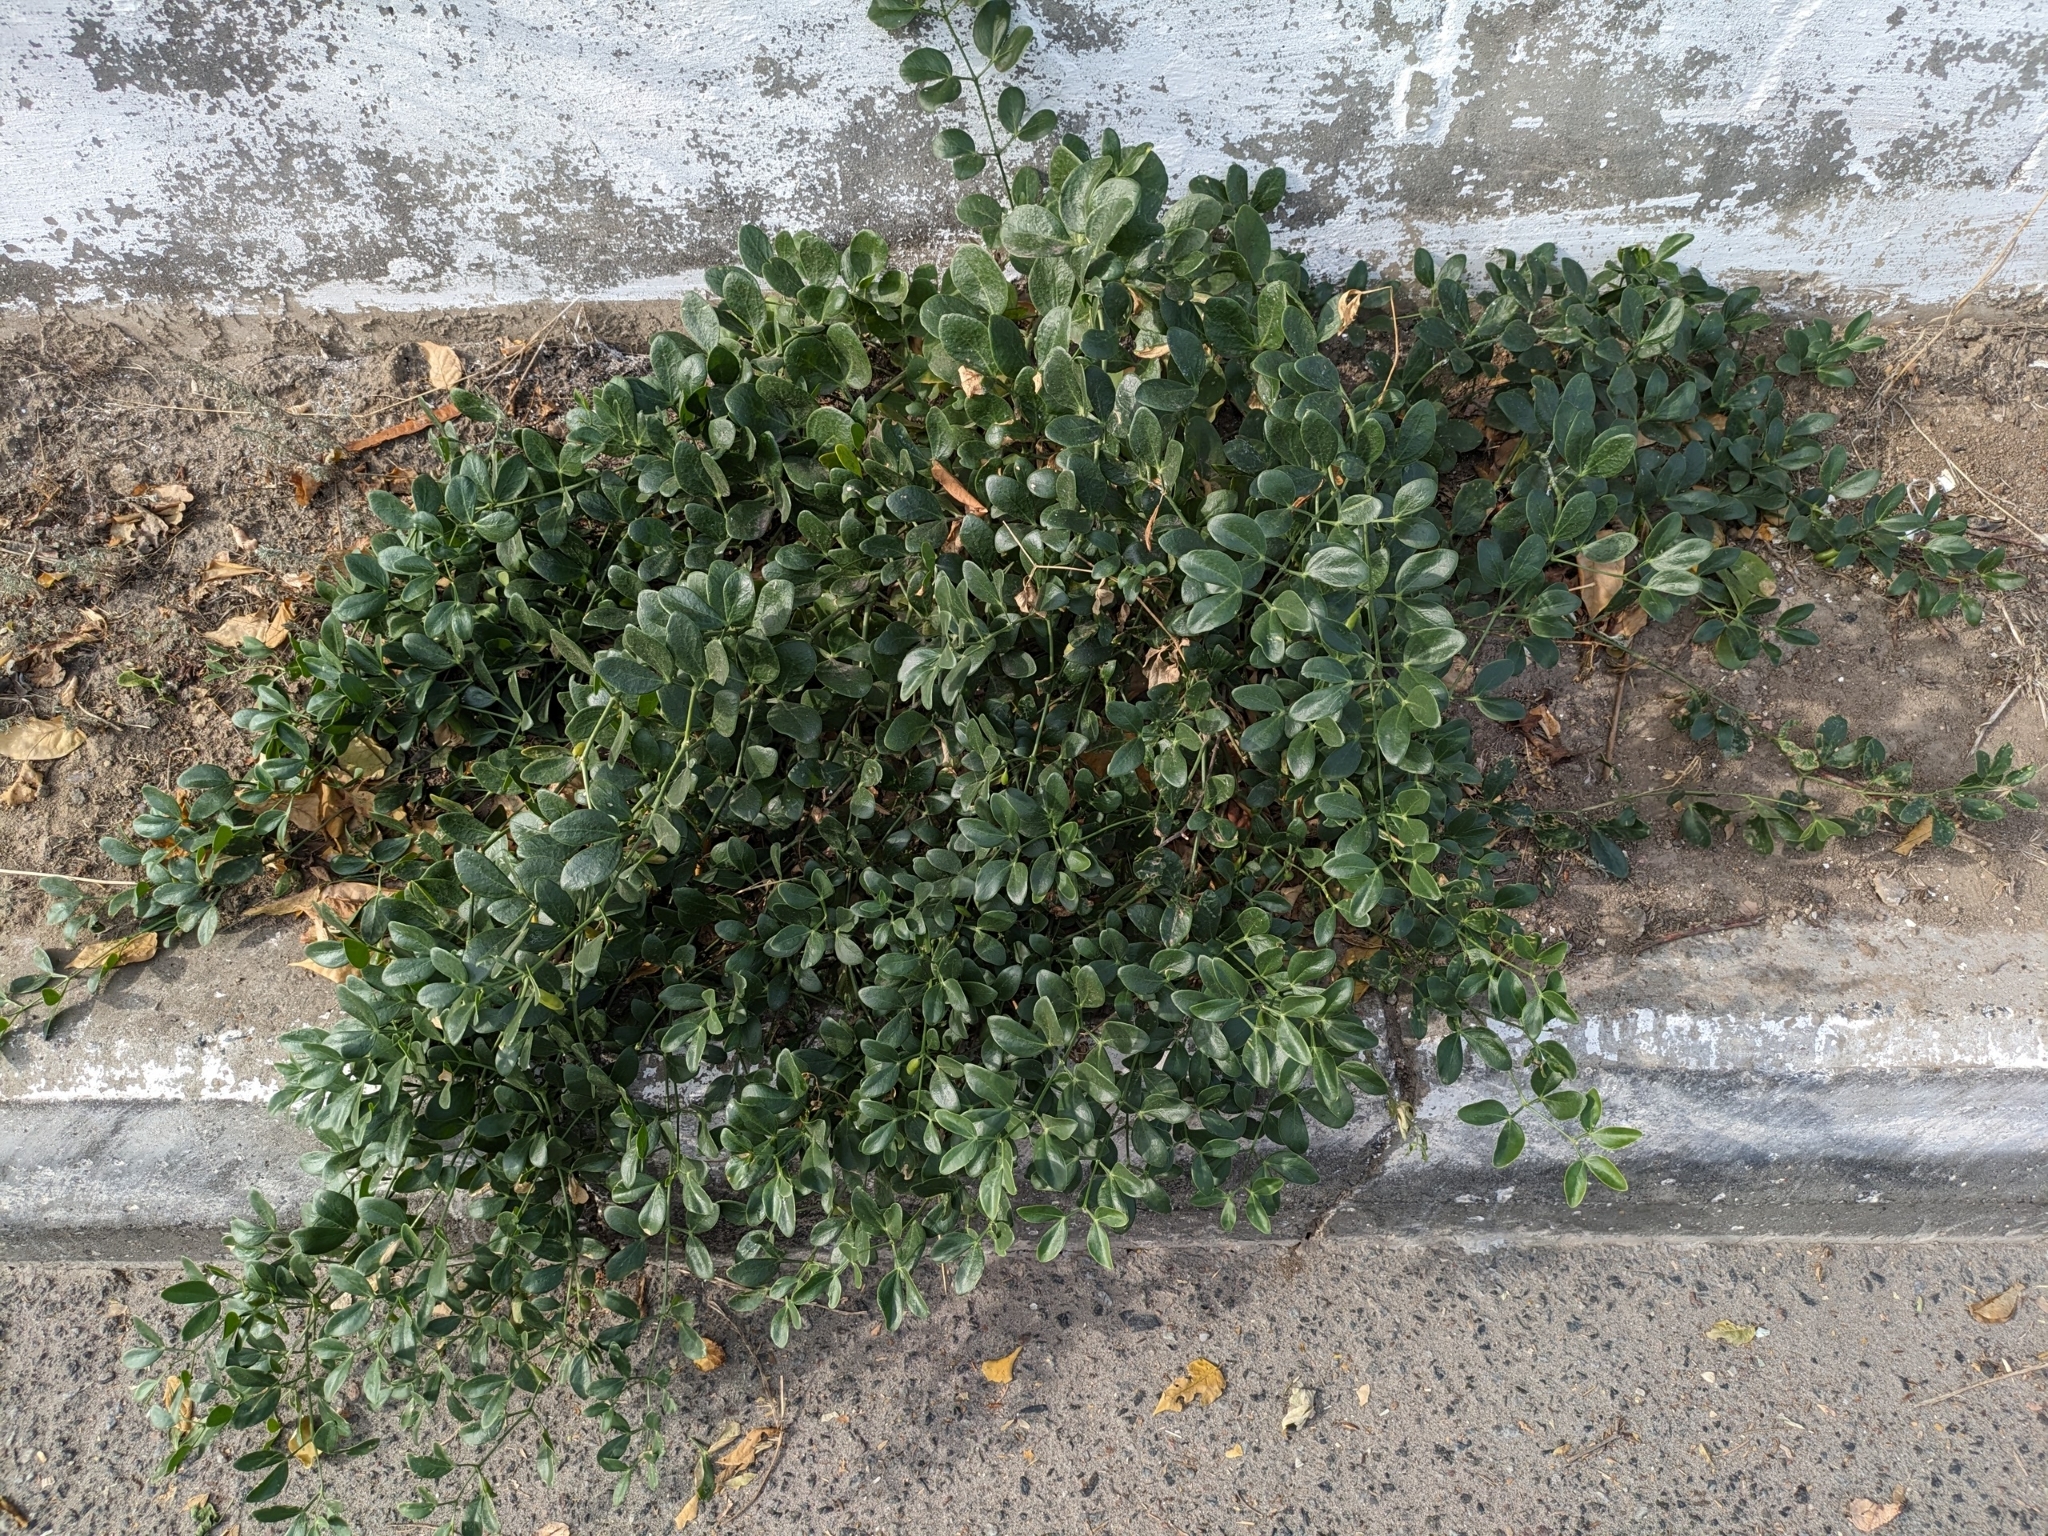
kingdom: Plantae
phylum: Tracheophyta
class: Magnoliopsida
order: Zygophyllales
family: Zygophyllaceae
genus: Zygophyllum
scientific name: Zygophyllum fabago
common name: Syrian beancaper
